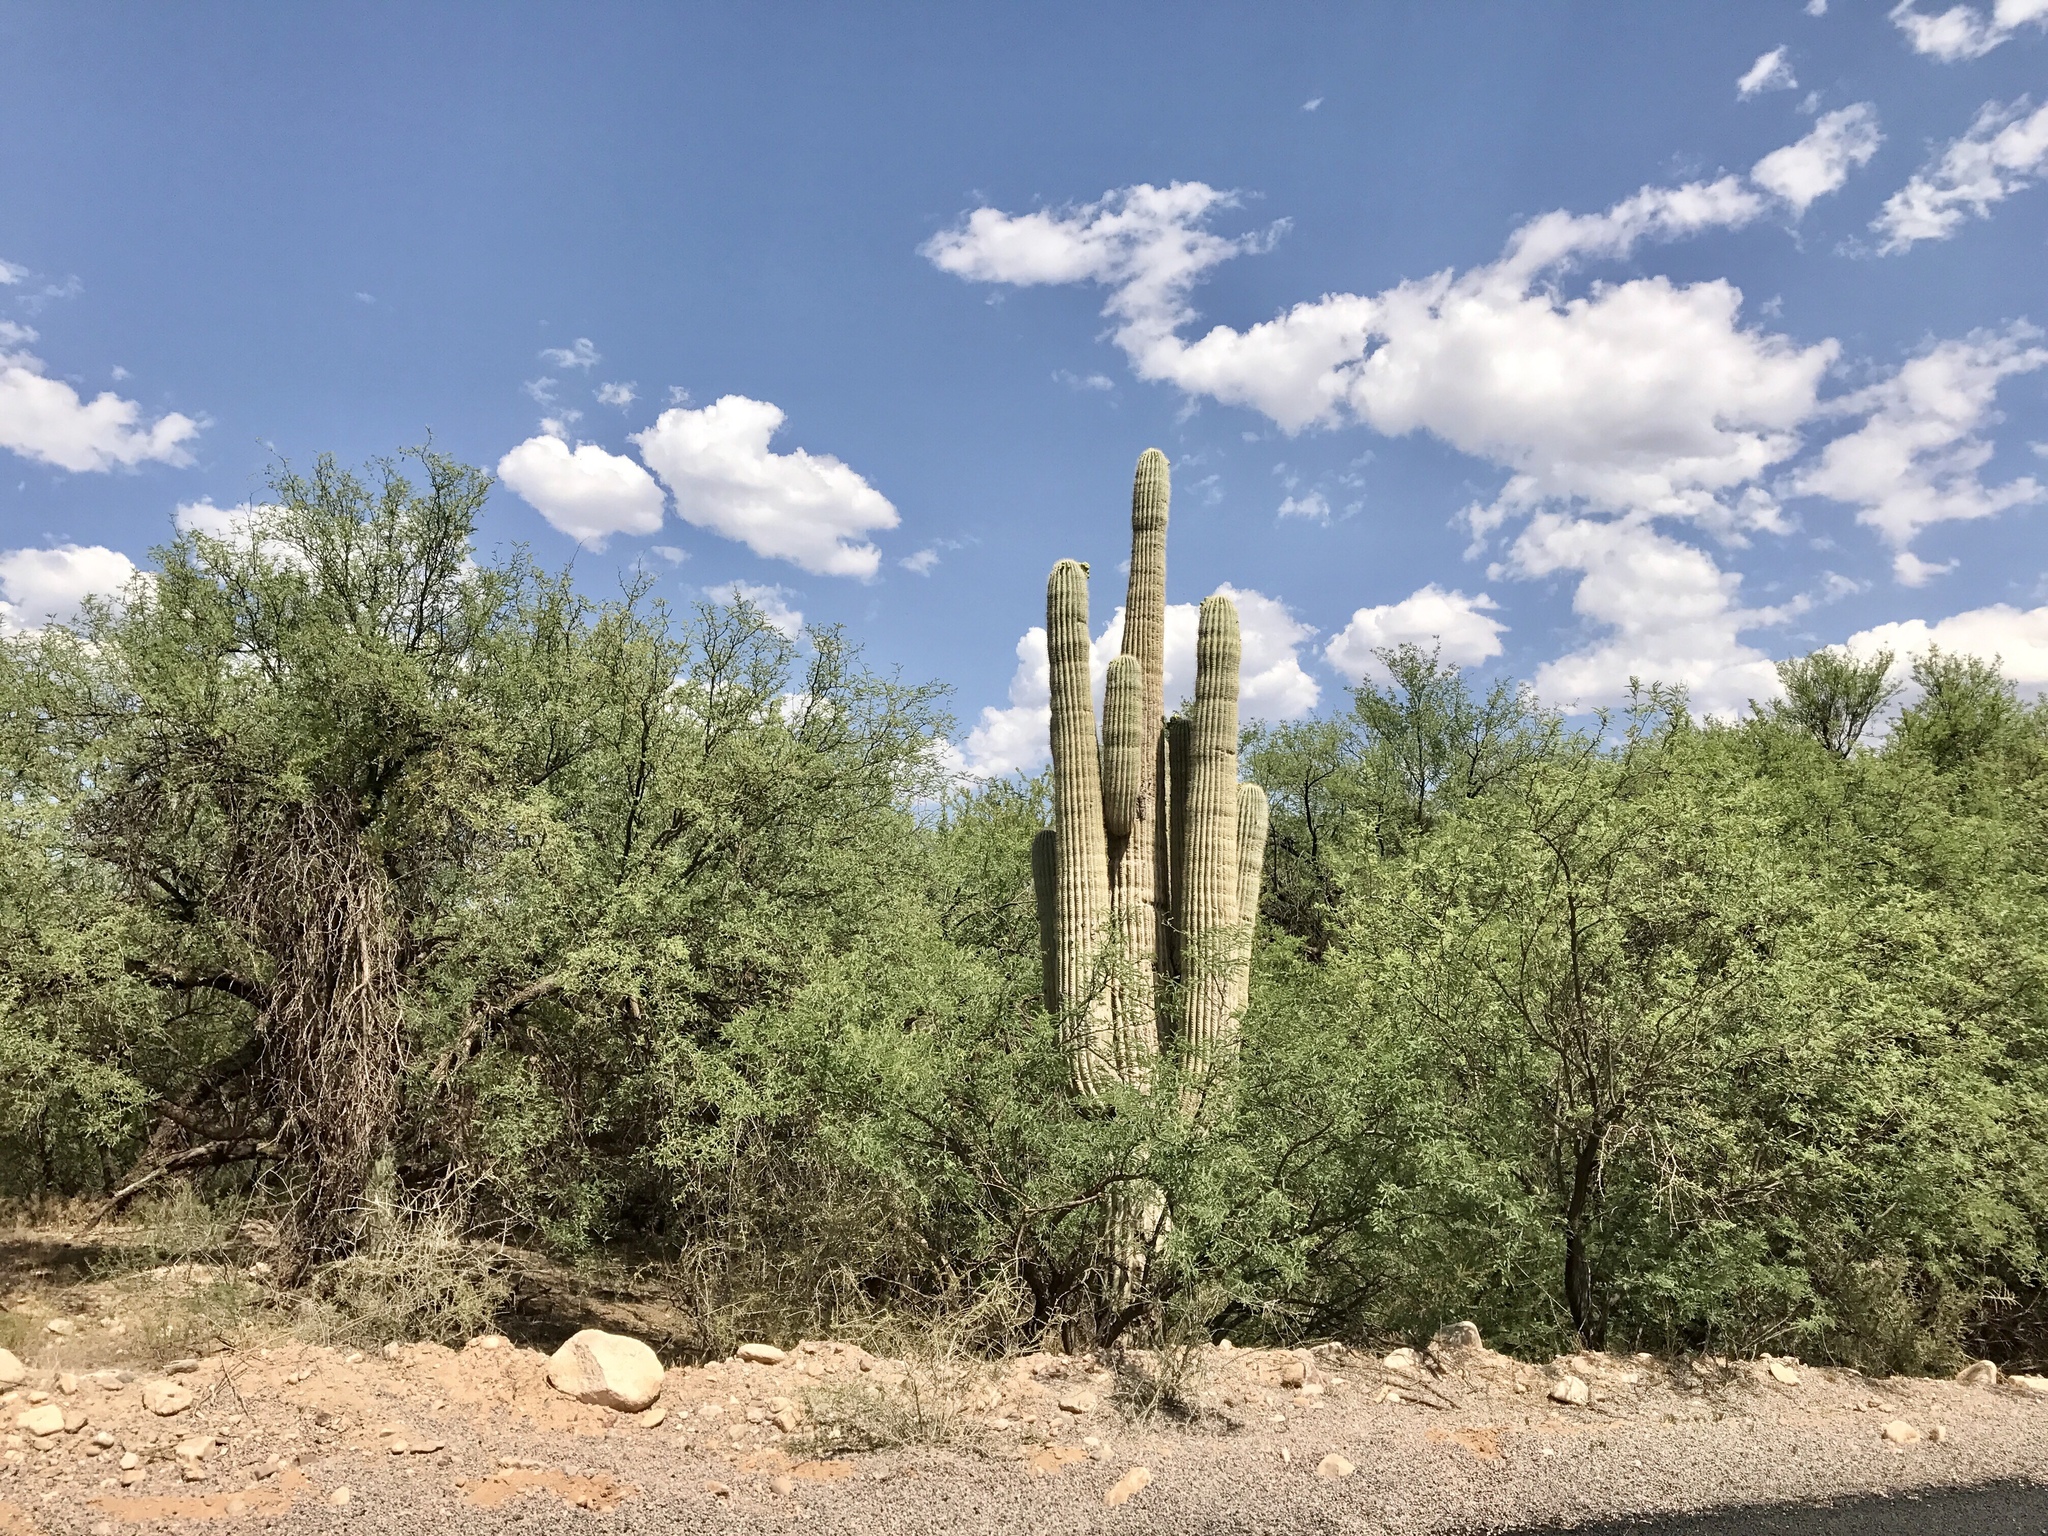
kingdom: Plantae
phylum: Tracheophyta
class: Magnoliopsida
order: Caryophyllales
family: Cactaceae
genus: Carnegiea
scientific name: Carnegiea gigantea
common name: Saguaro
